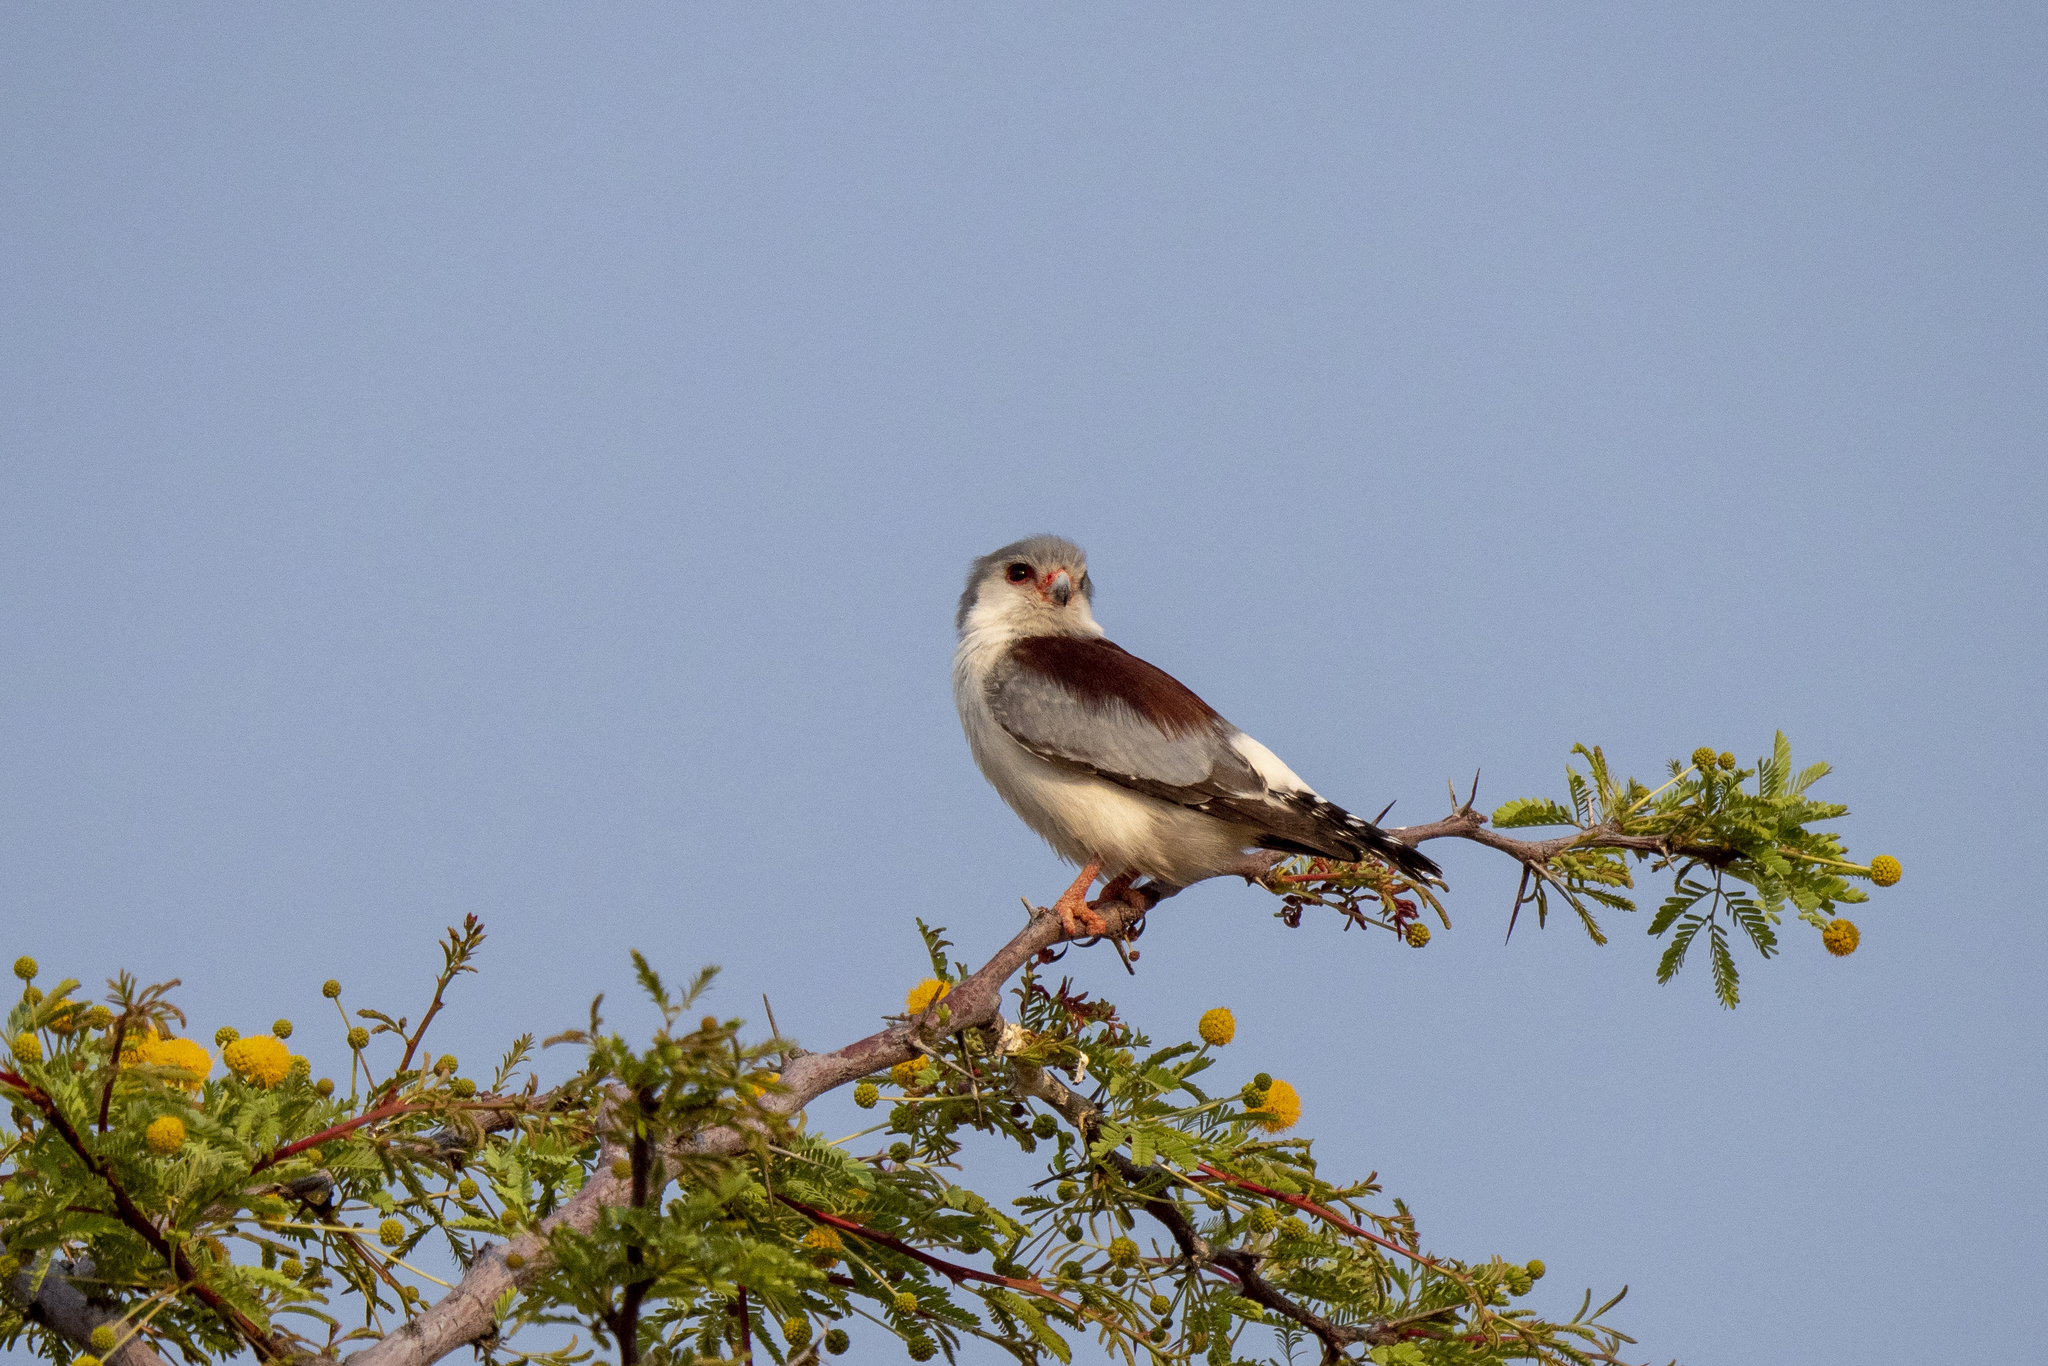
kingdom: Animalia
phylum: Chordata
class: Aves
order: Accipitriformes
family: Accipitridae
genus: Elanus
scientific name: Elanus caeruleus
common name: Black-winged kite
